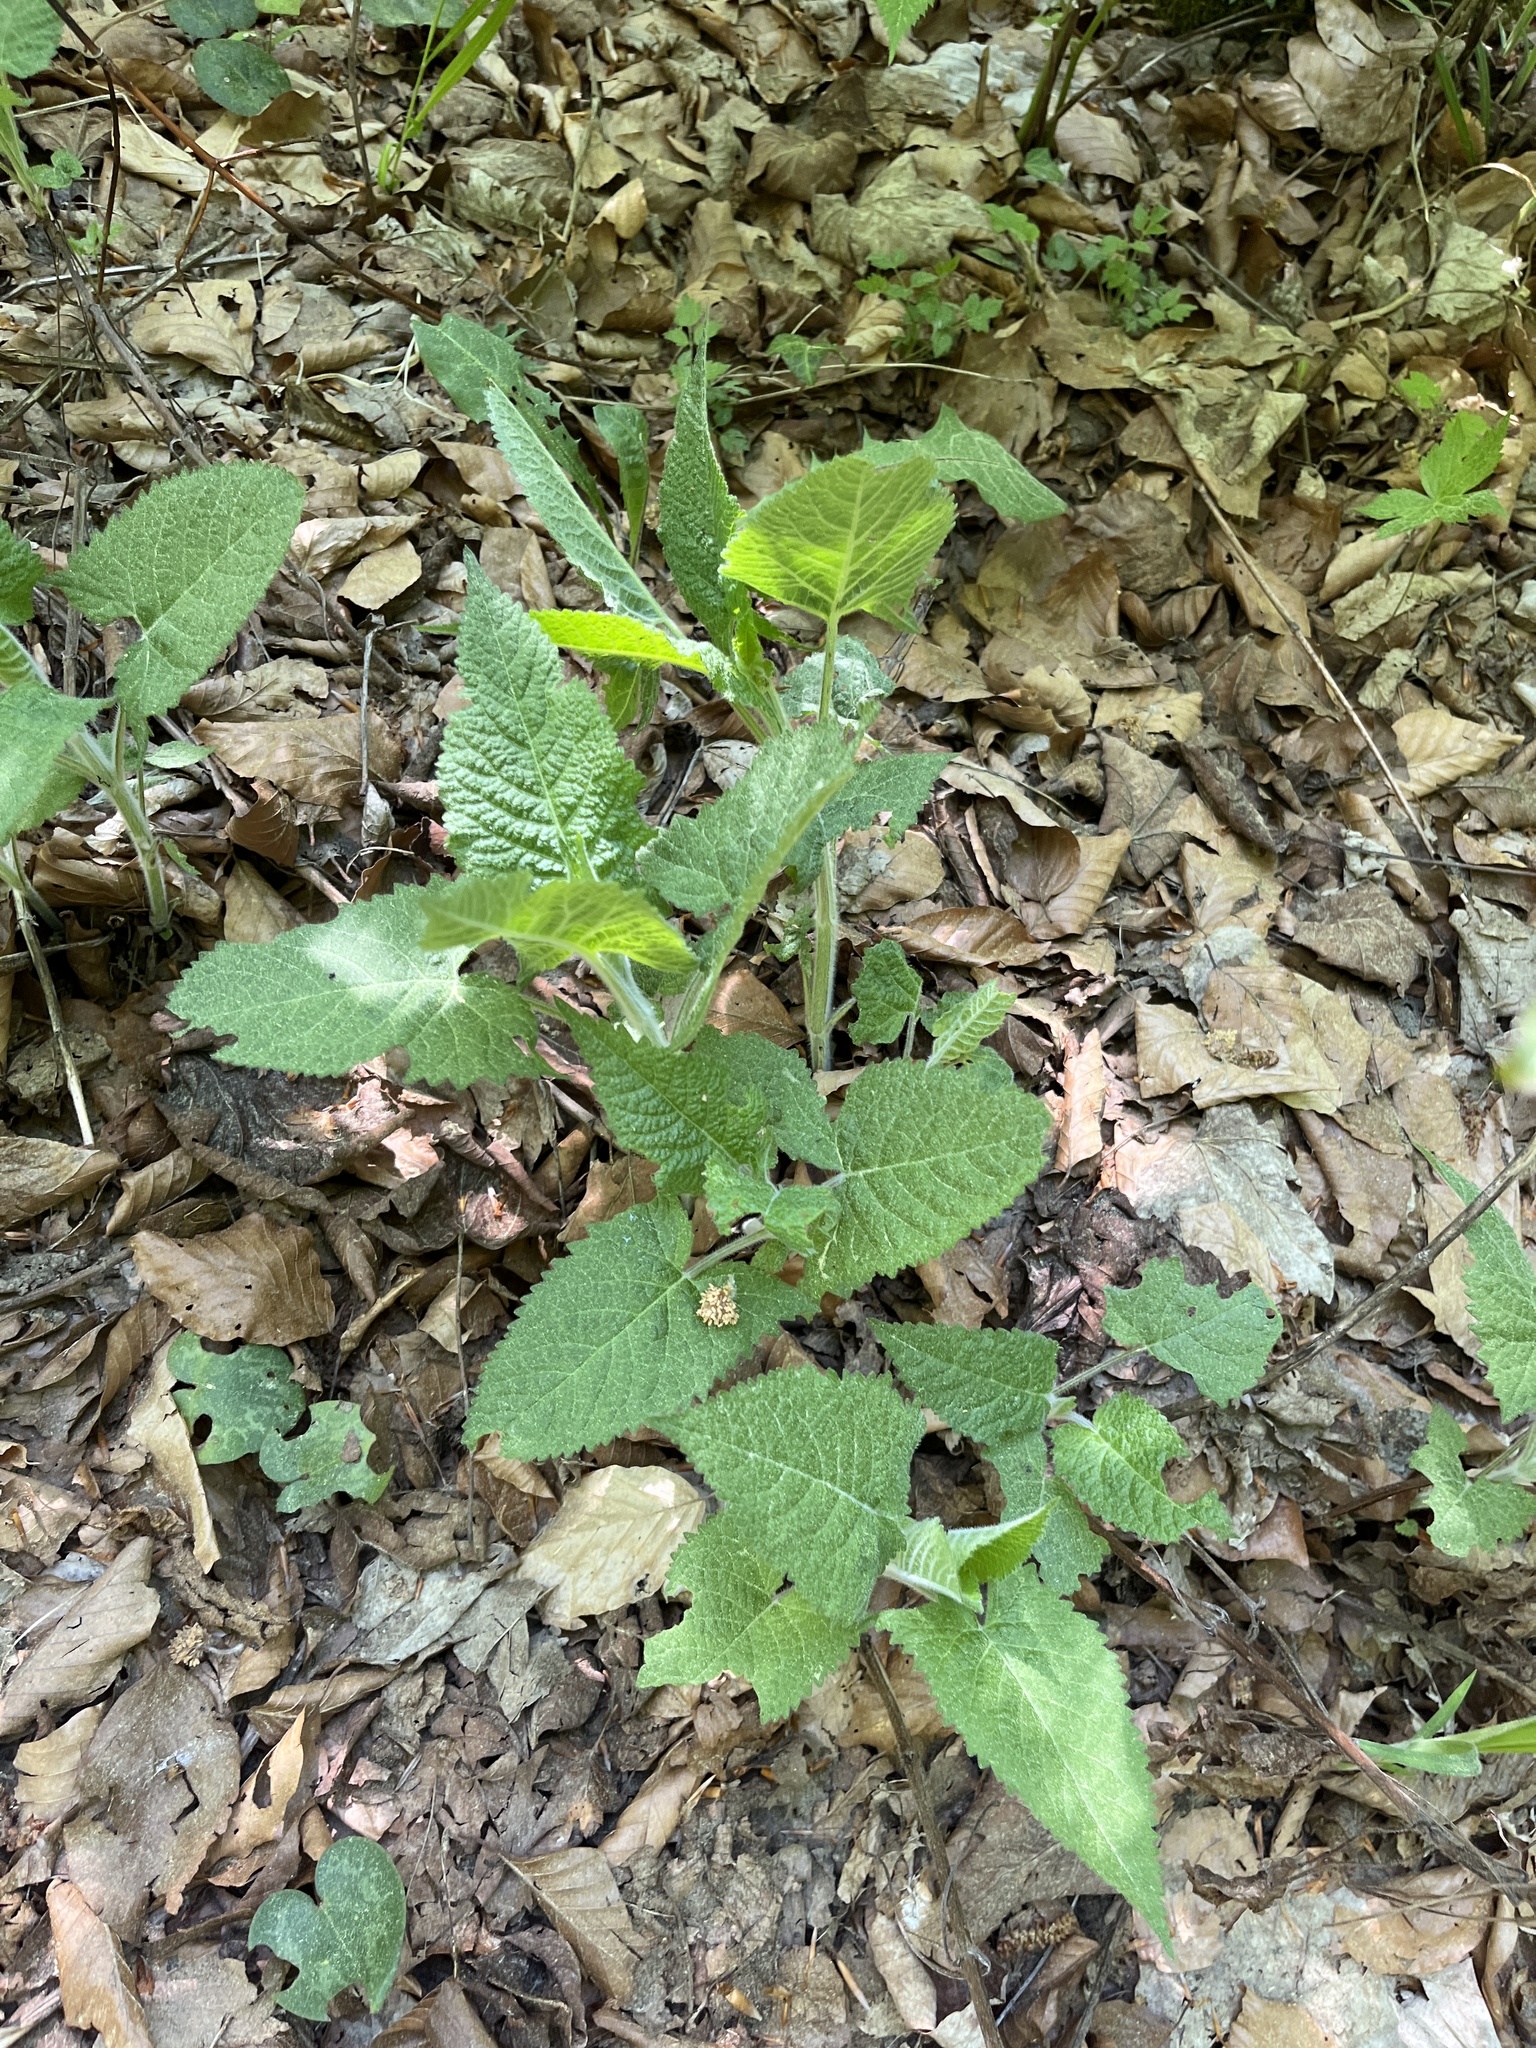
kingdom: Plantae
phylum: Tracheophyta
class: Magnoliopsida
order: Lamiales
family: Lamiaceae
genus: Salvia
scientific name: Salvia glutinosa
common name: Sticky clary
